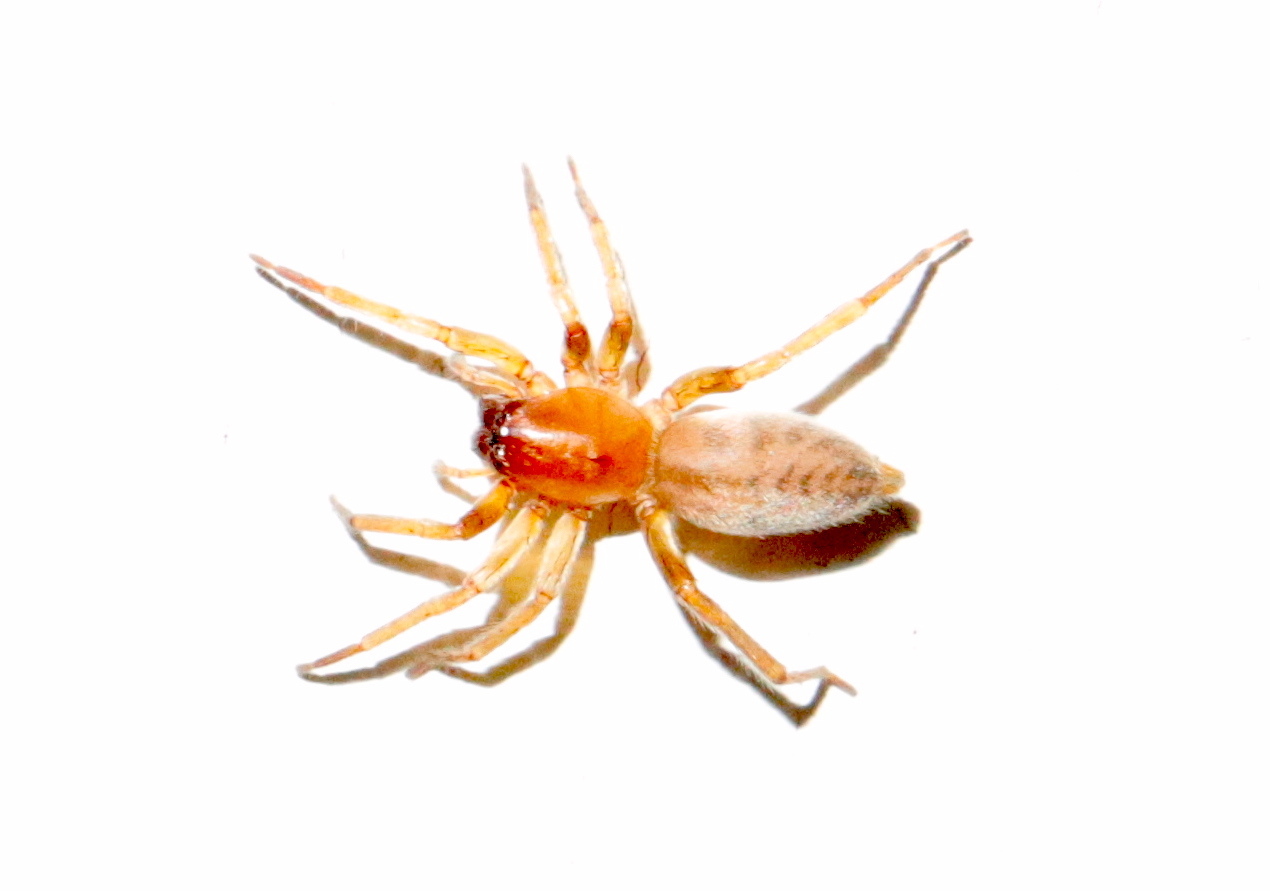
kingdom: Animalia
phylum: Arthropoda
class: Arachnida
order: Araneae
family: Clubionidae
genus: Elaver
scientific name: Elaver excepta
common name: White sac spider
